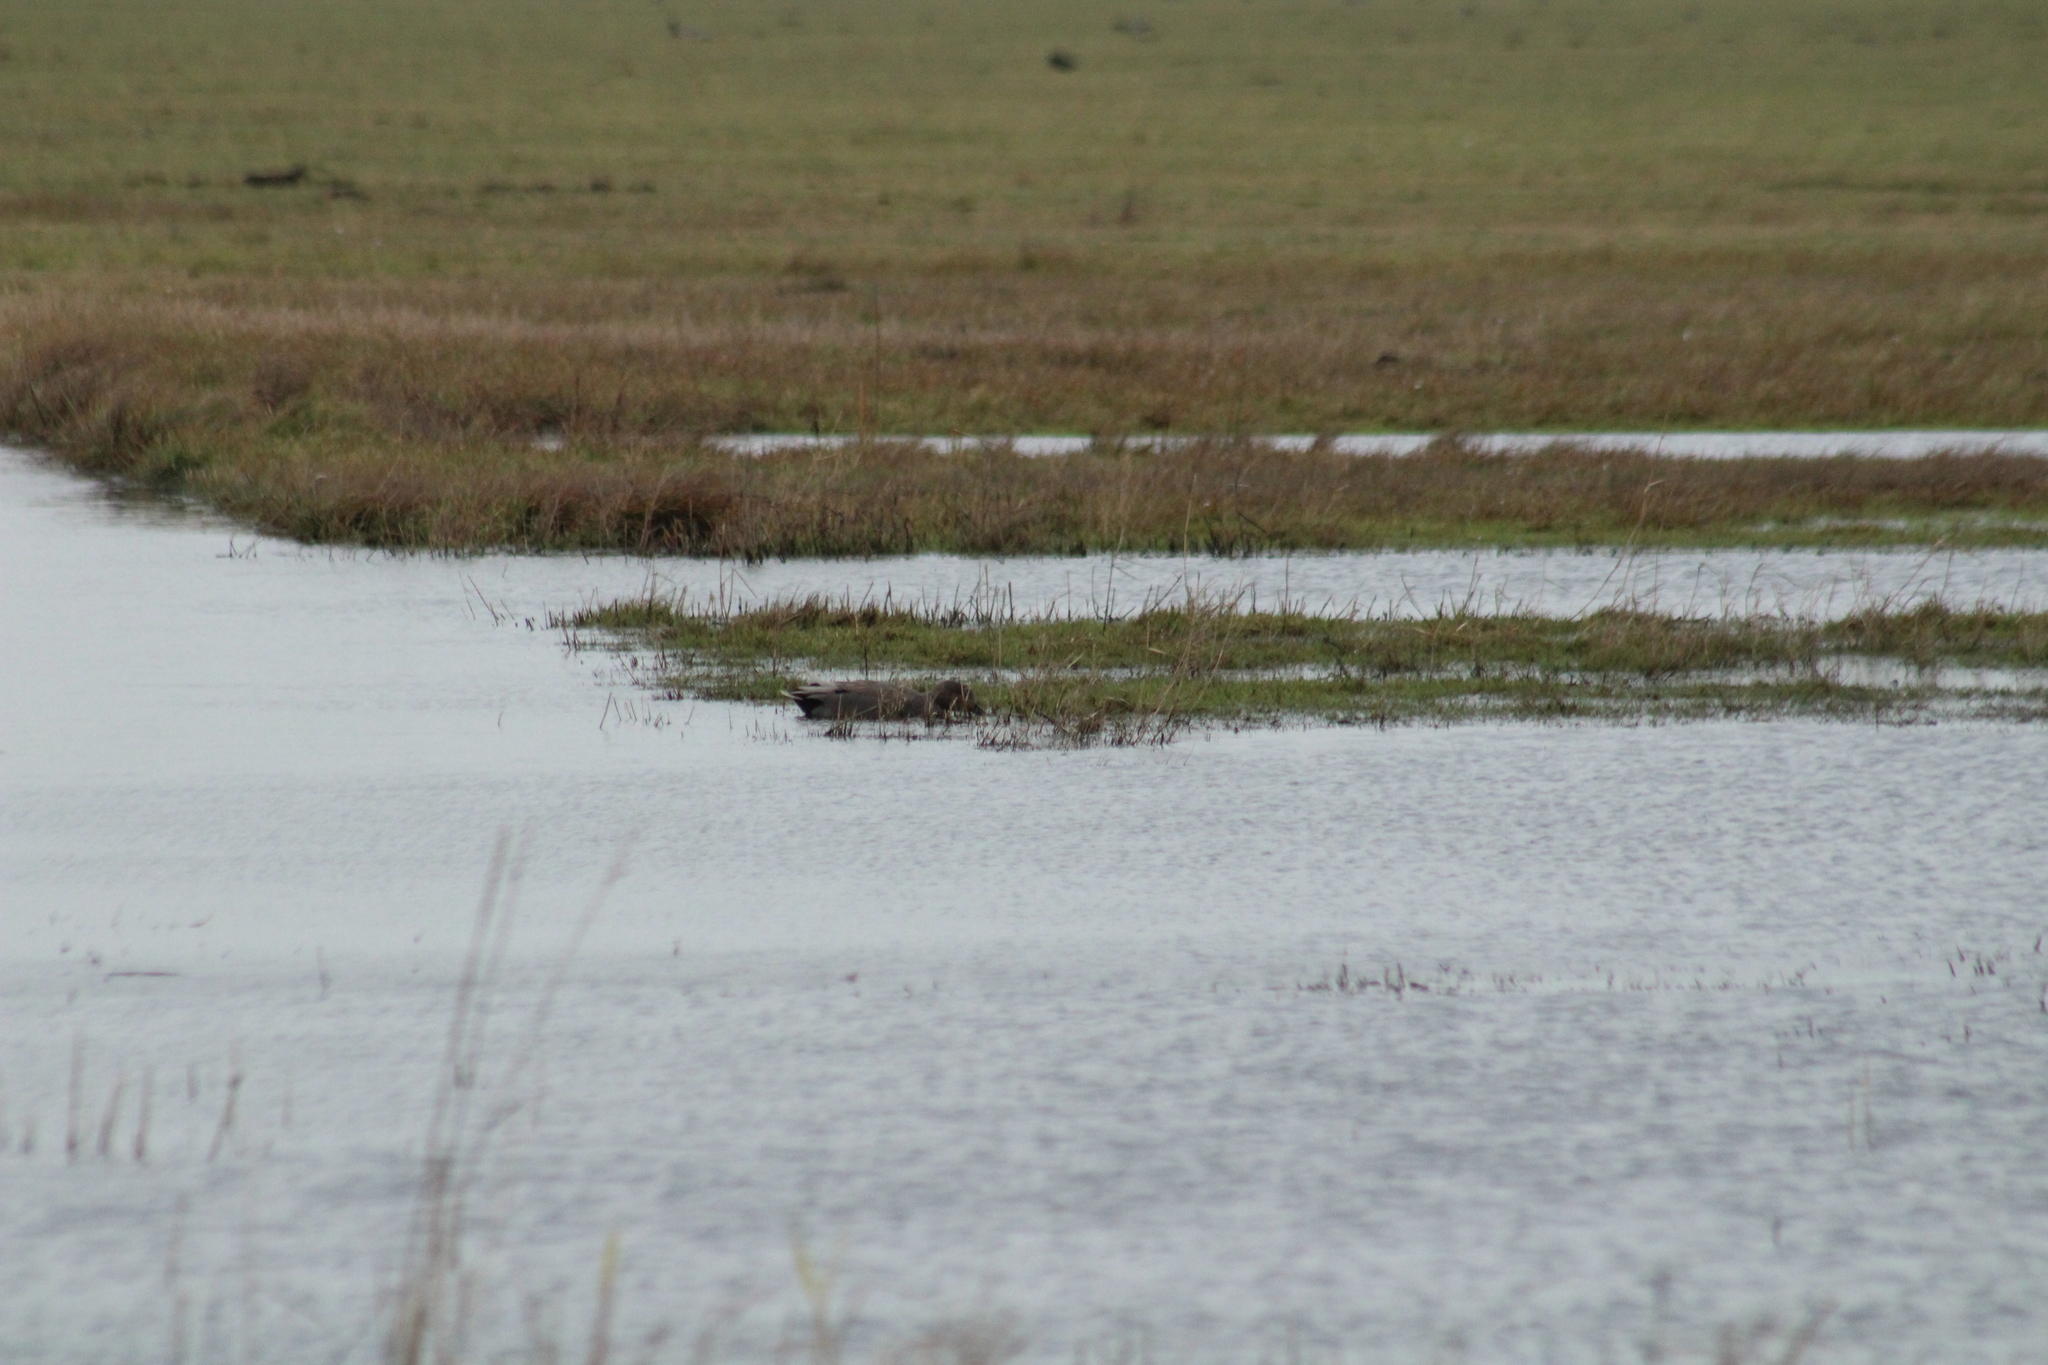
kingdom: Animalia
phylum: Chordata
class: Aves
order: Anseriformes
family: Anatidae
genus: Mareca
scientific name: Mareca strepera
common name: Gadwall
